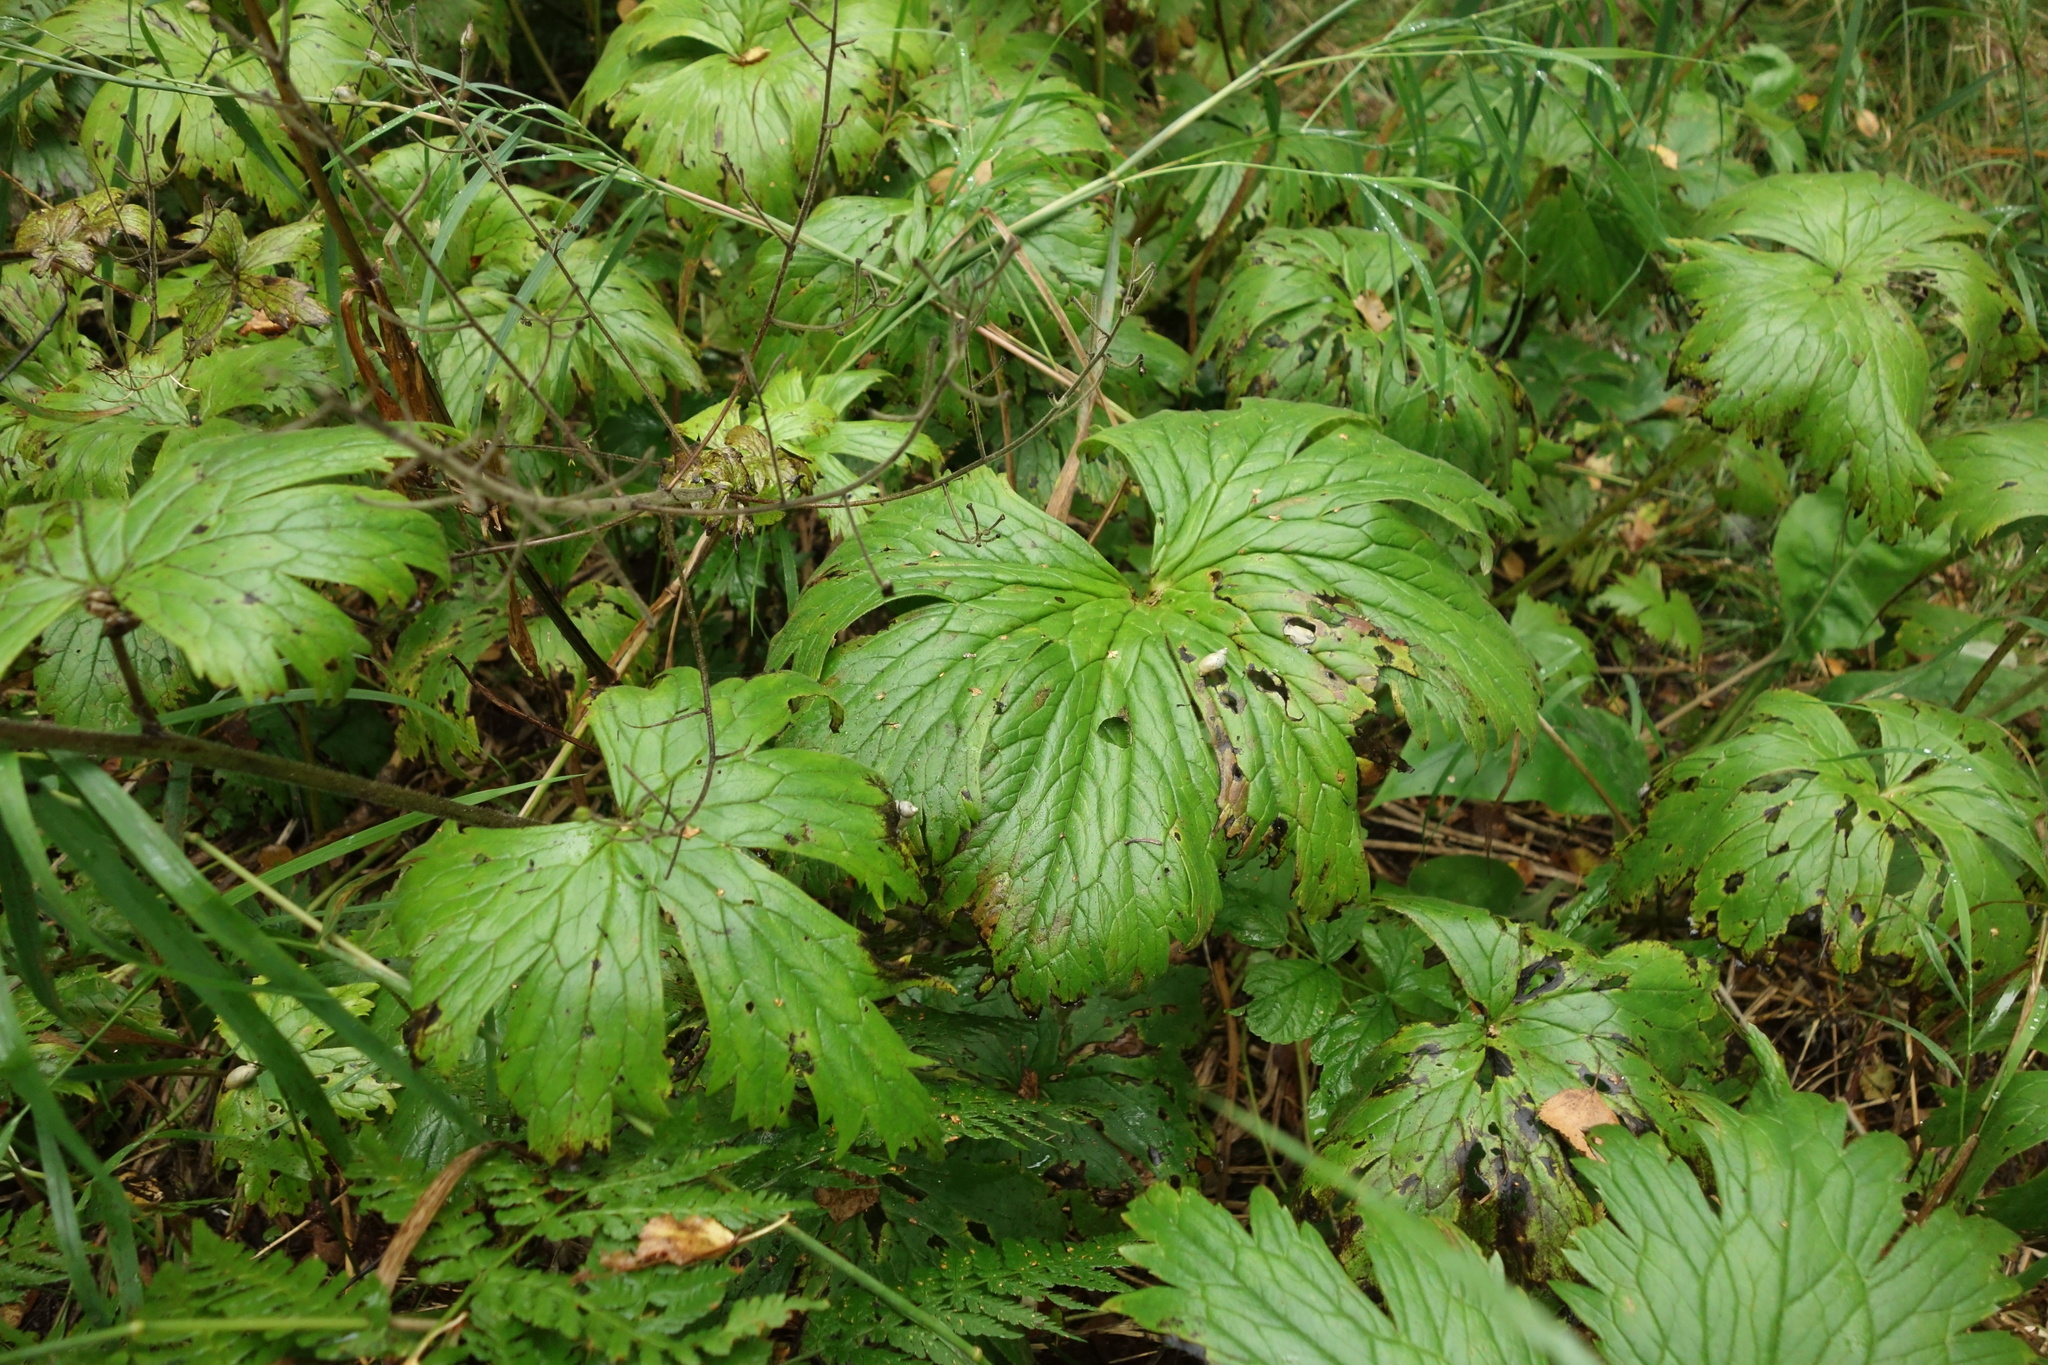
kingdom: Plantae
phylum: Tracheophyta
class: Magnoliopsida
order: Ranunculales
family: Ranunculaceae
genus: Aconitum
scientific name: Aconitum septentrionale
